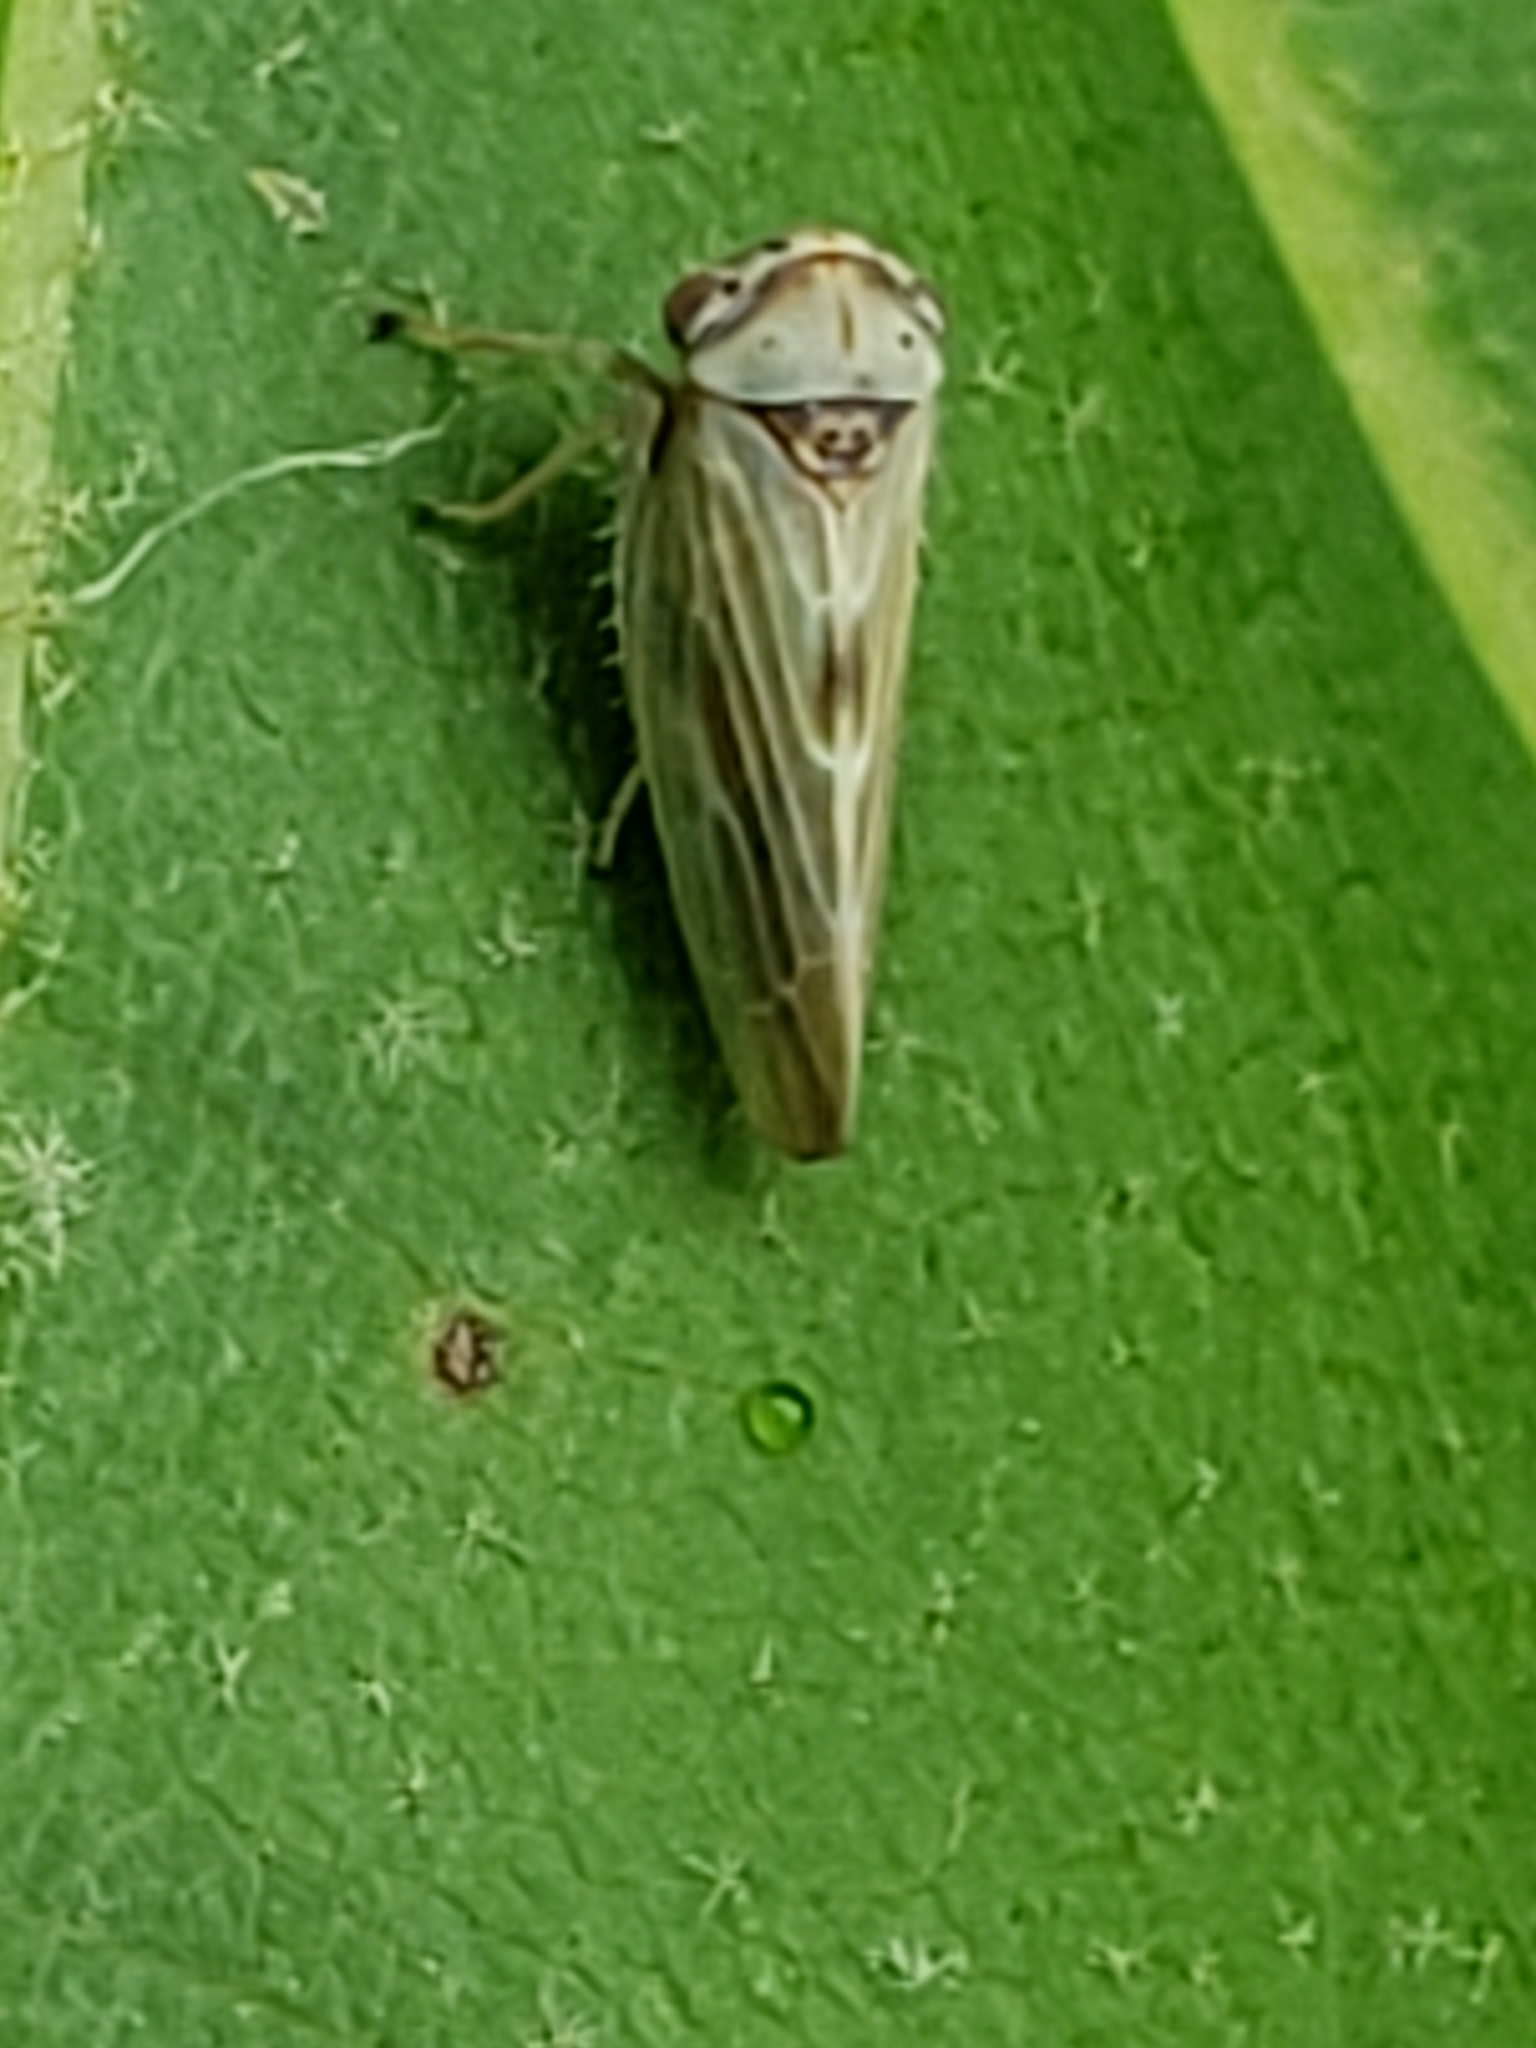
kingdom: Animalia
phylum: Arthropoda
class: Insecta
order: Hemiptera
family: Cicadellidae
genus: Agalliopsis
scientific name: Agalliopsis ancistra
